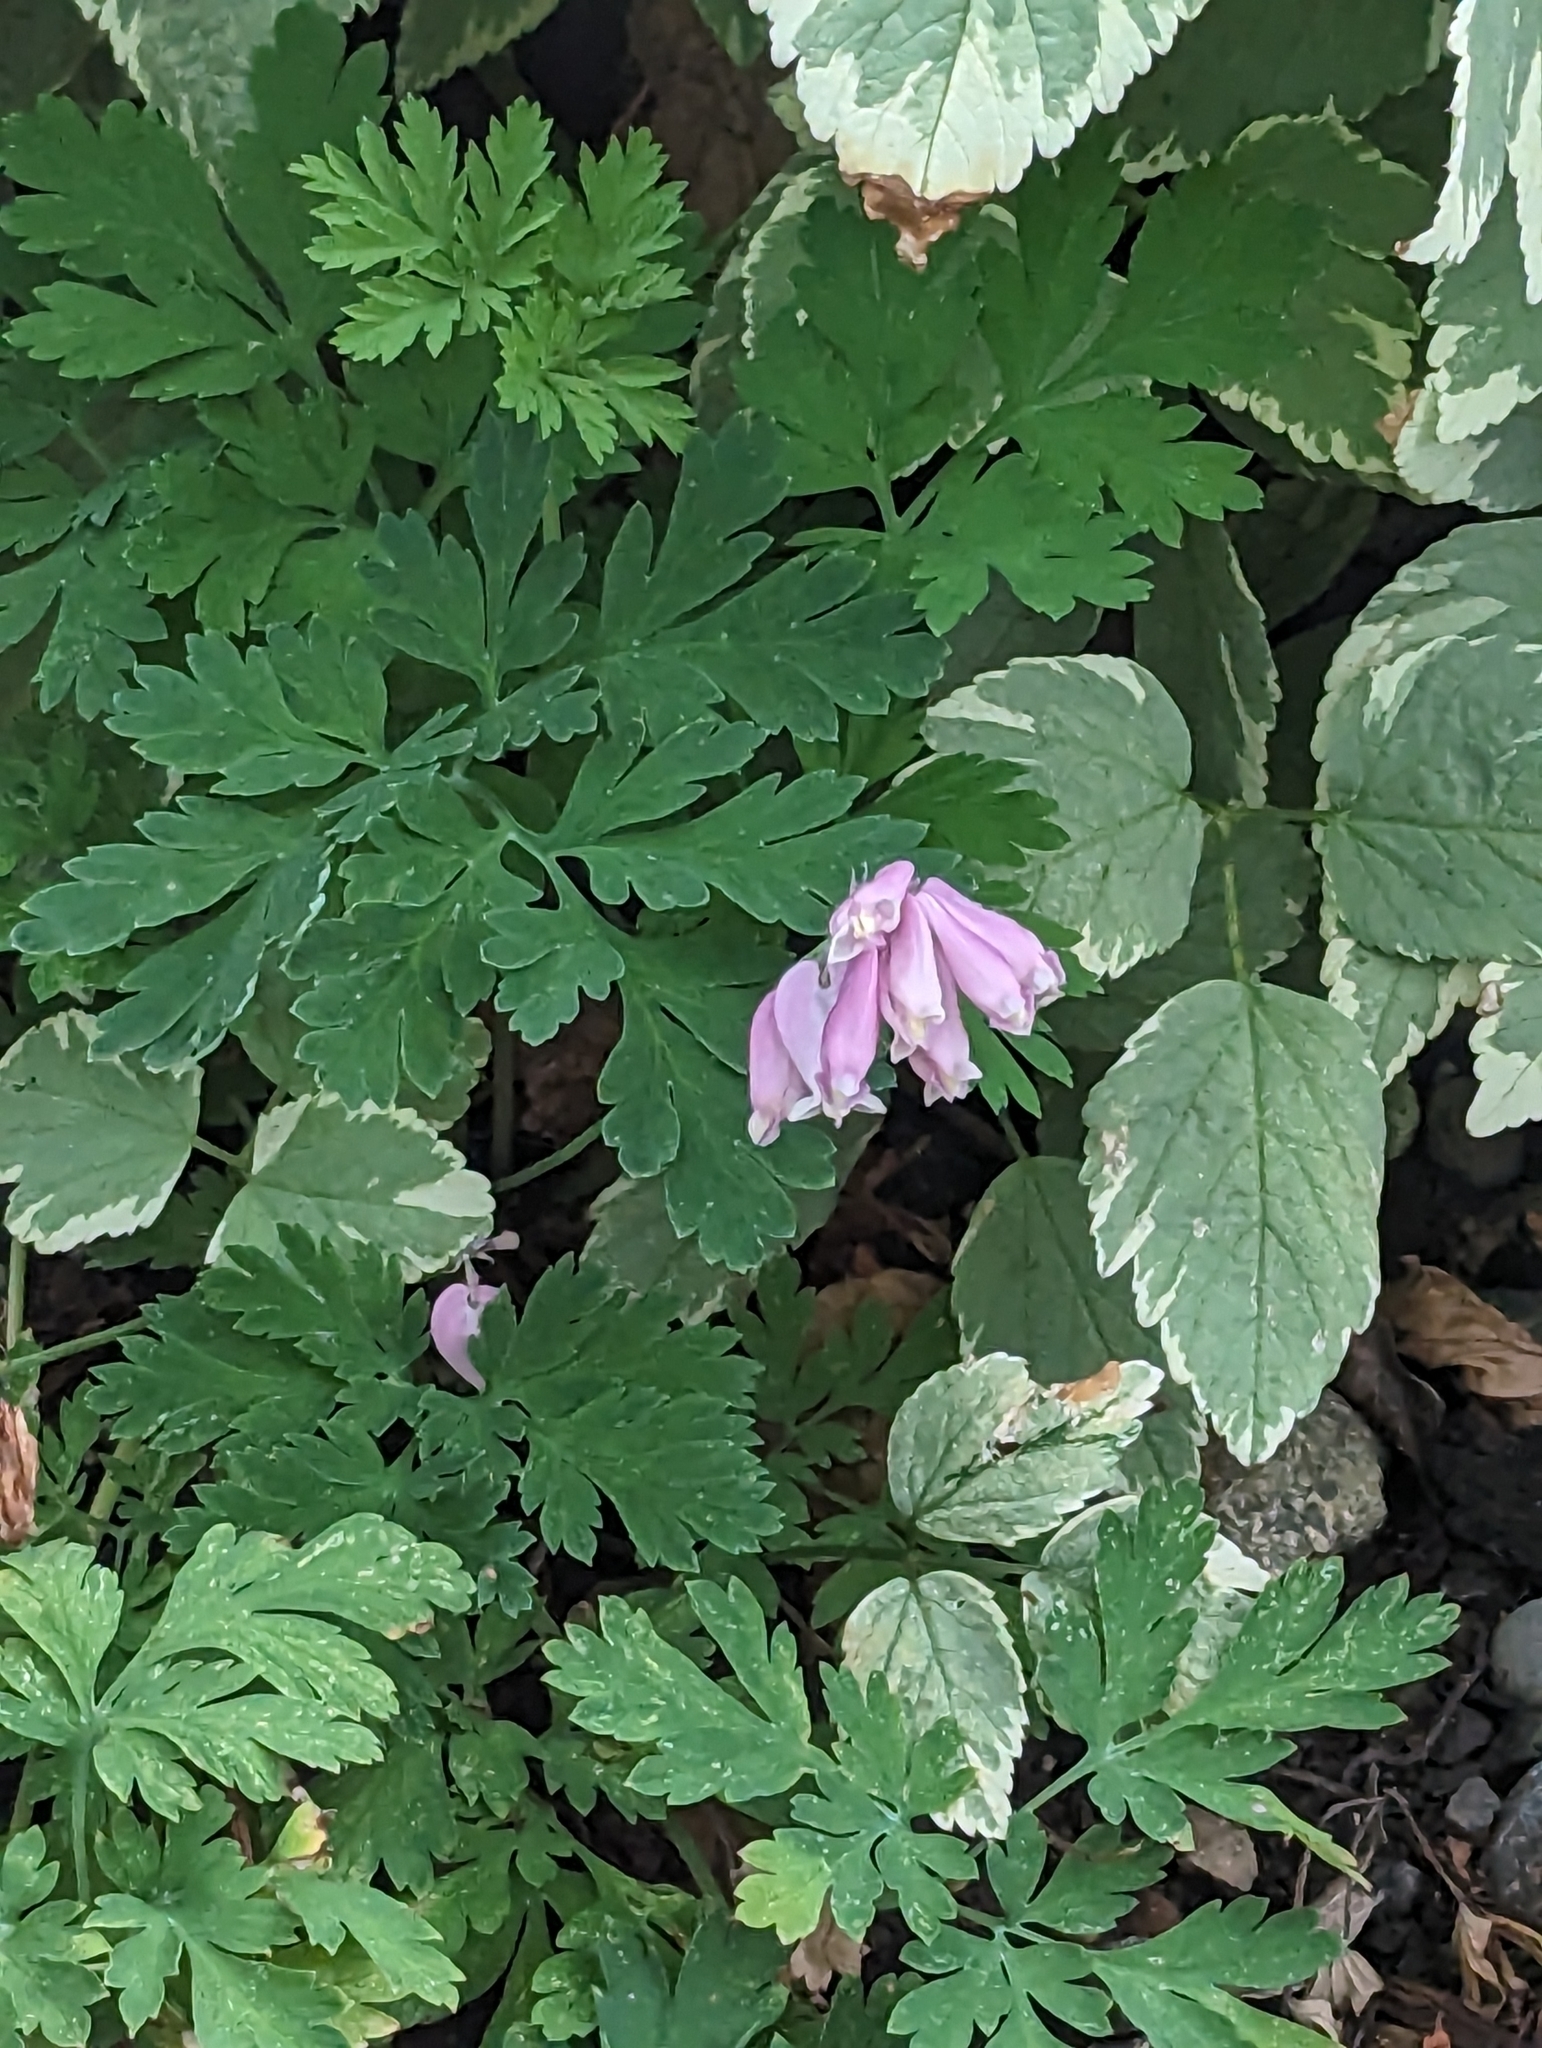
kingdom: Plantae
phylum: Tracheophyta
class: Magnoliopsida
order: Ranunculales
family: Papaveraceae
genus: Dicentra
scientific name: Dicentra formosa
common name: Bleeding-heart
